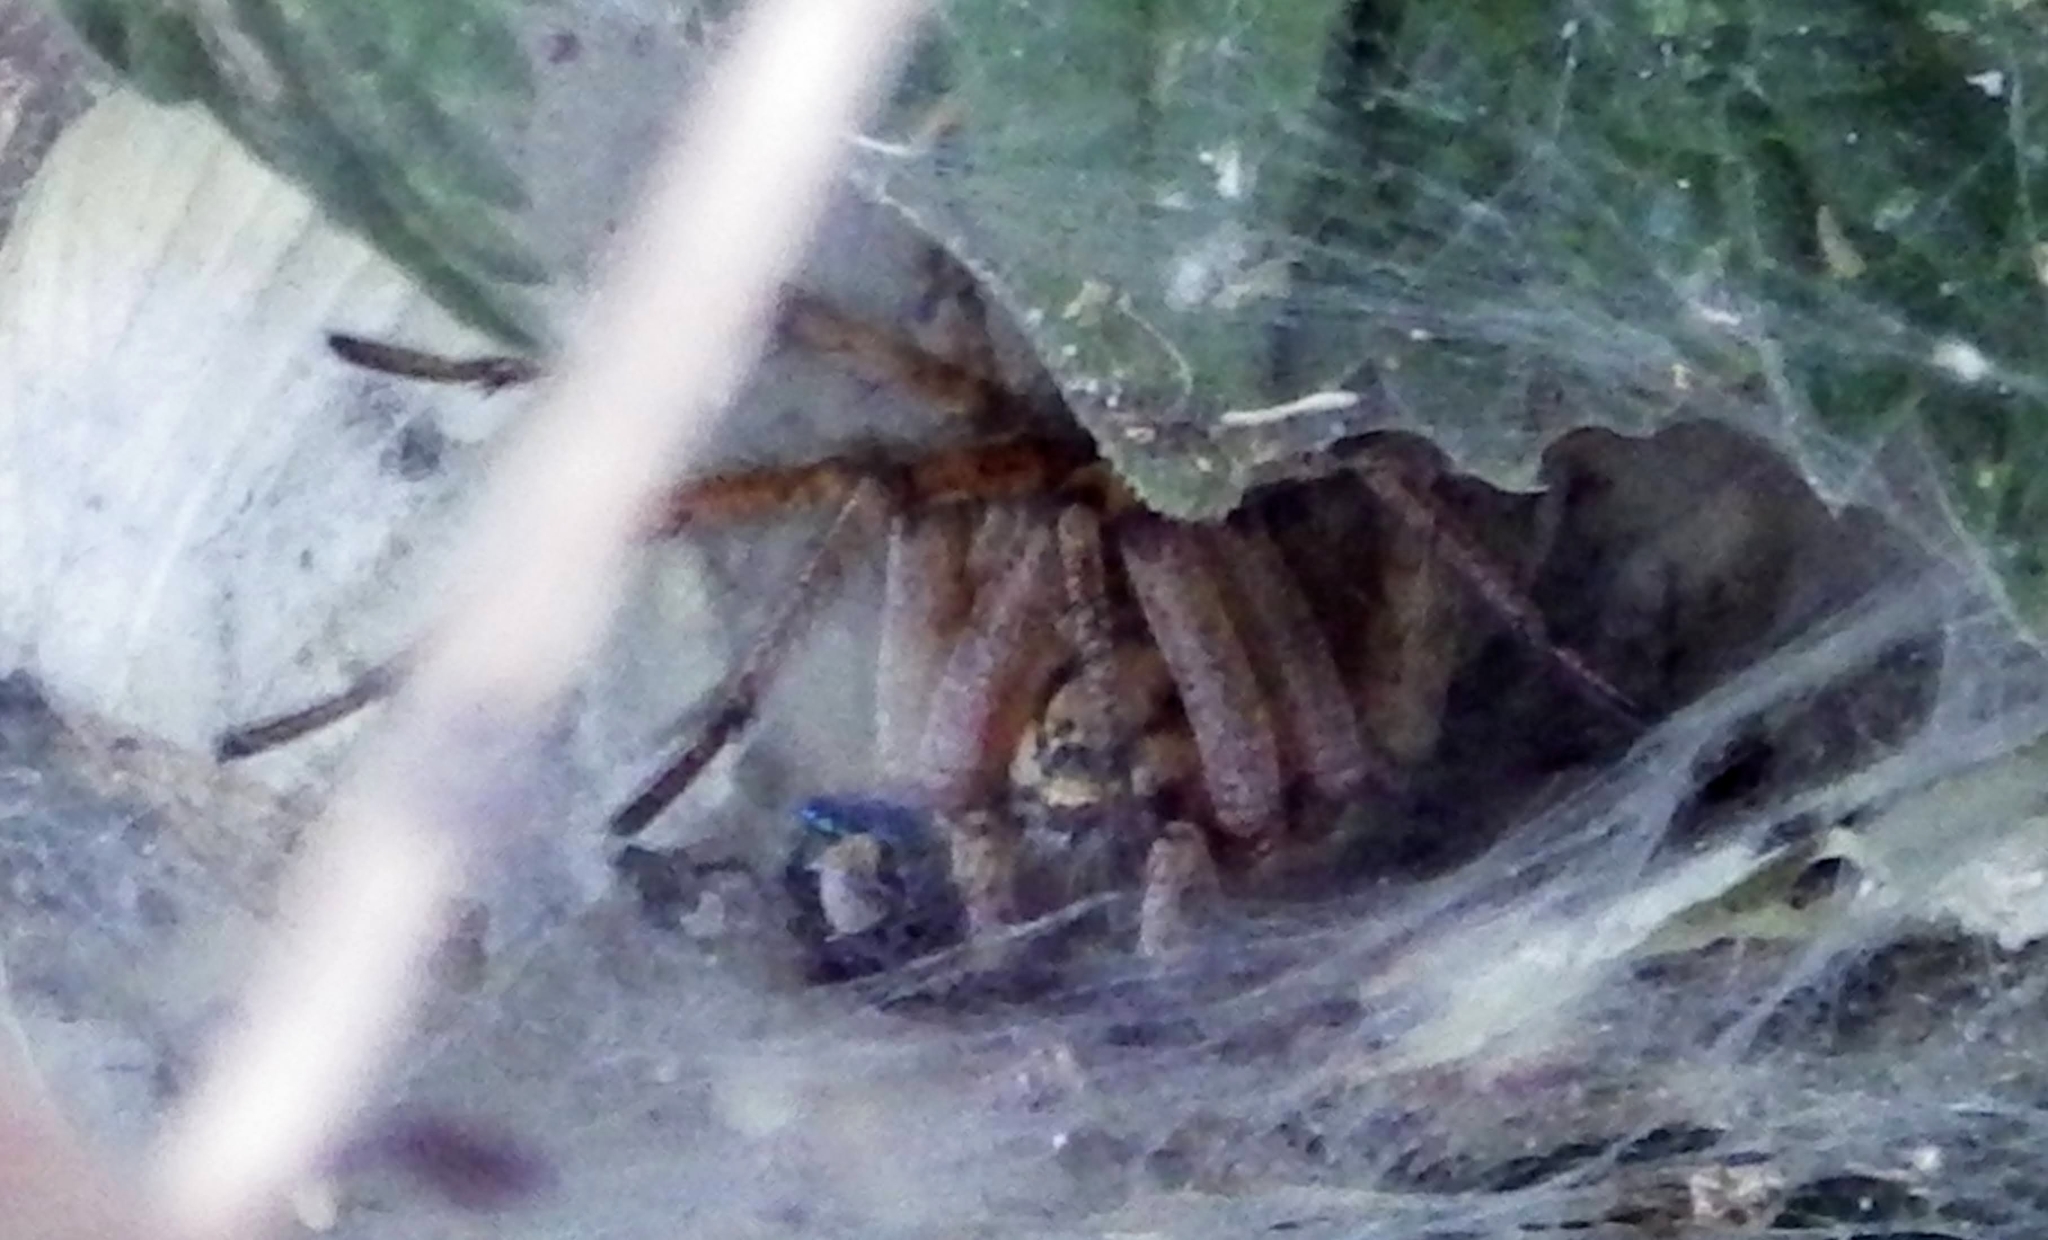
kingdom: Animalia
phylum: Arthropoda
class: Arachnida
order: Araneae
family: Agelenidae
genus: Agelena
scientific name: Agelena labyrinthica
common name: Labyrinth spider
